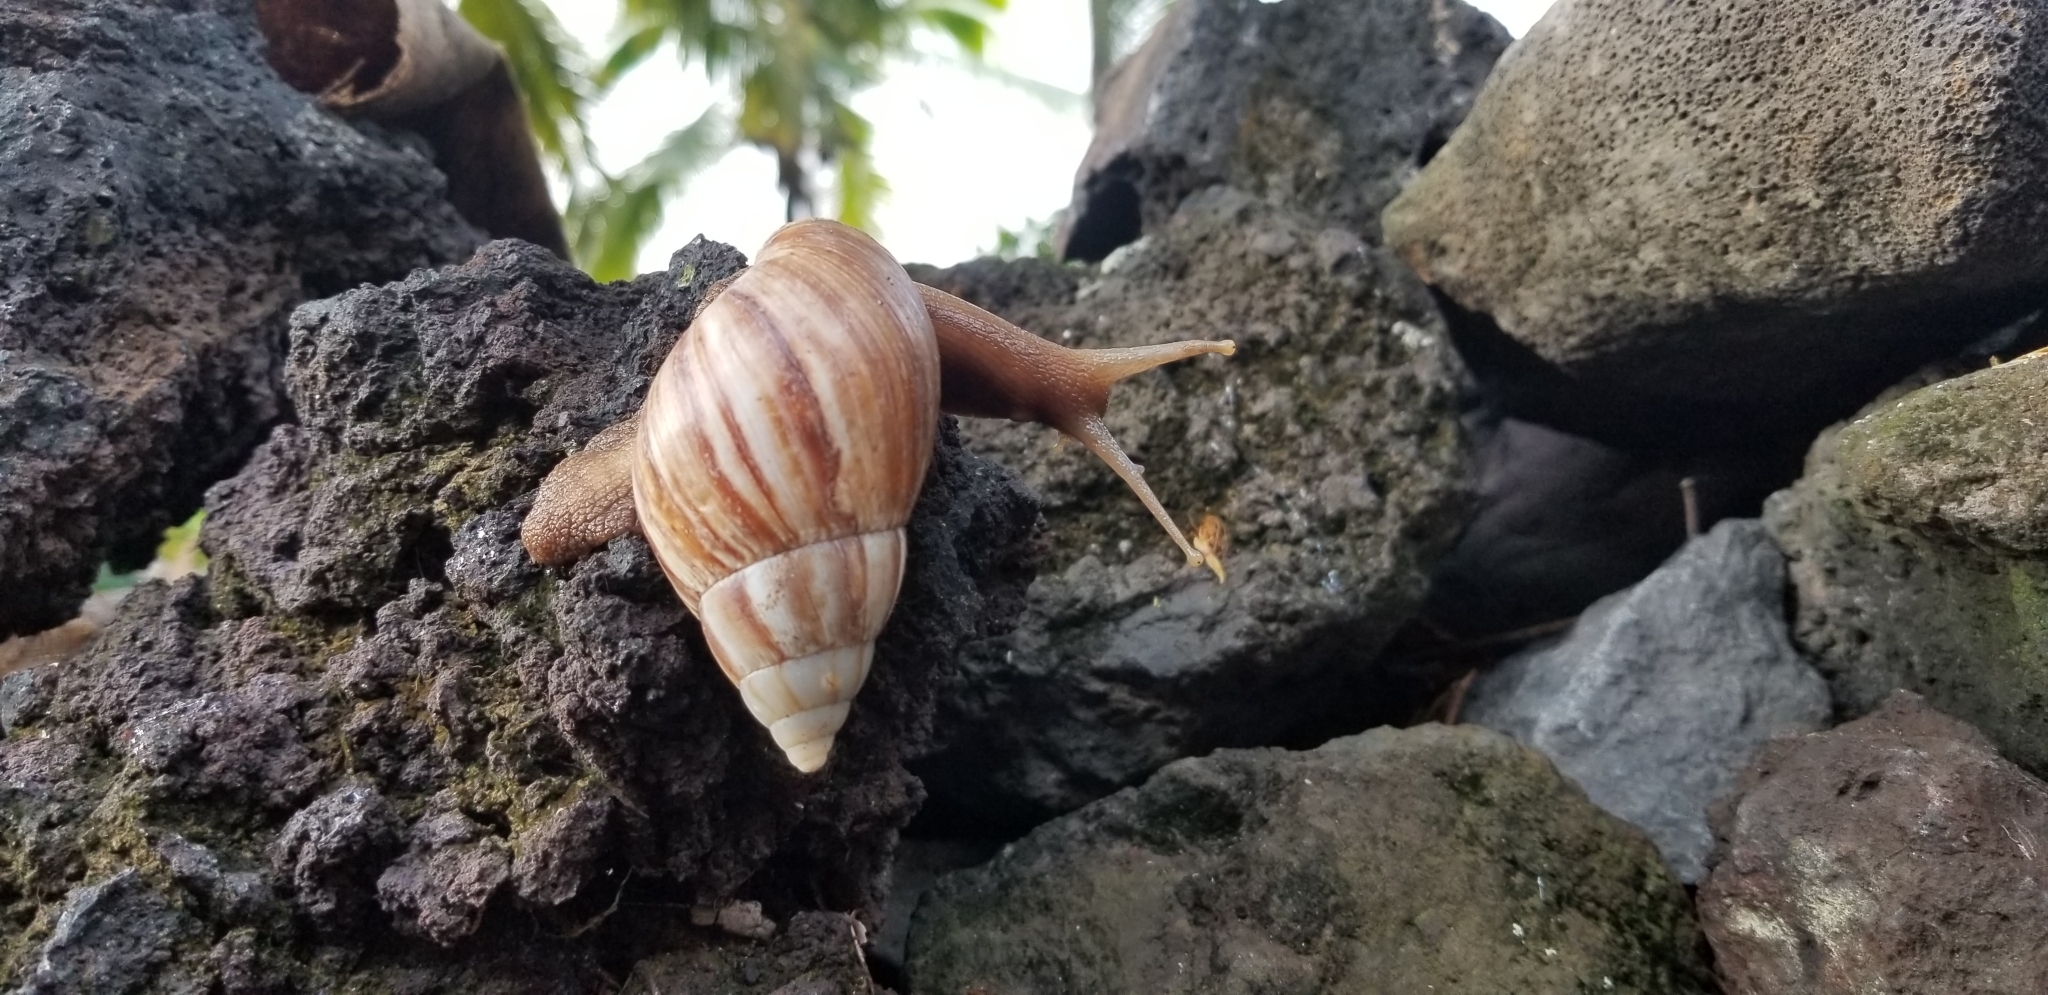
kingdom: Animalia
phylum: Mollusca
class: Gastropoda
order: Stylommatophora
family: Achatinidae
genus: Lissachatina
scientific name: Lissachatina fulica
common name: Giant african snail
